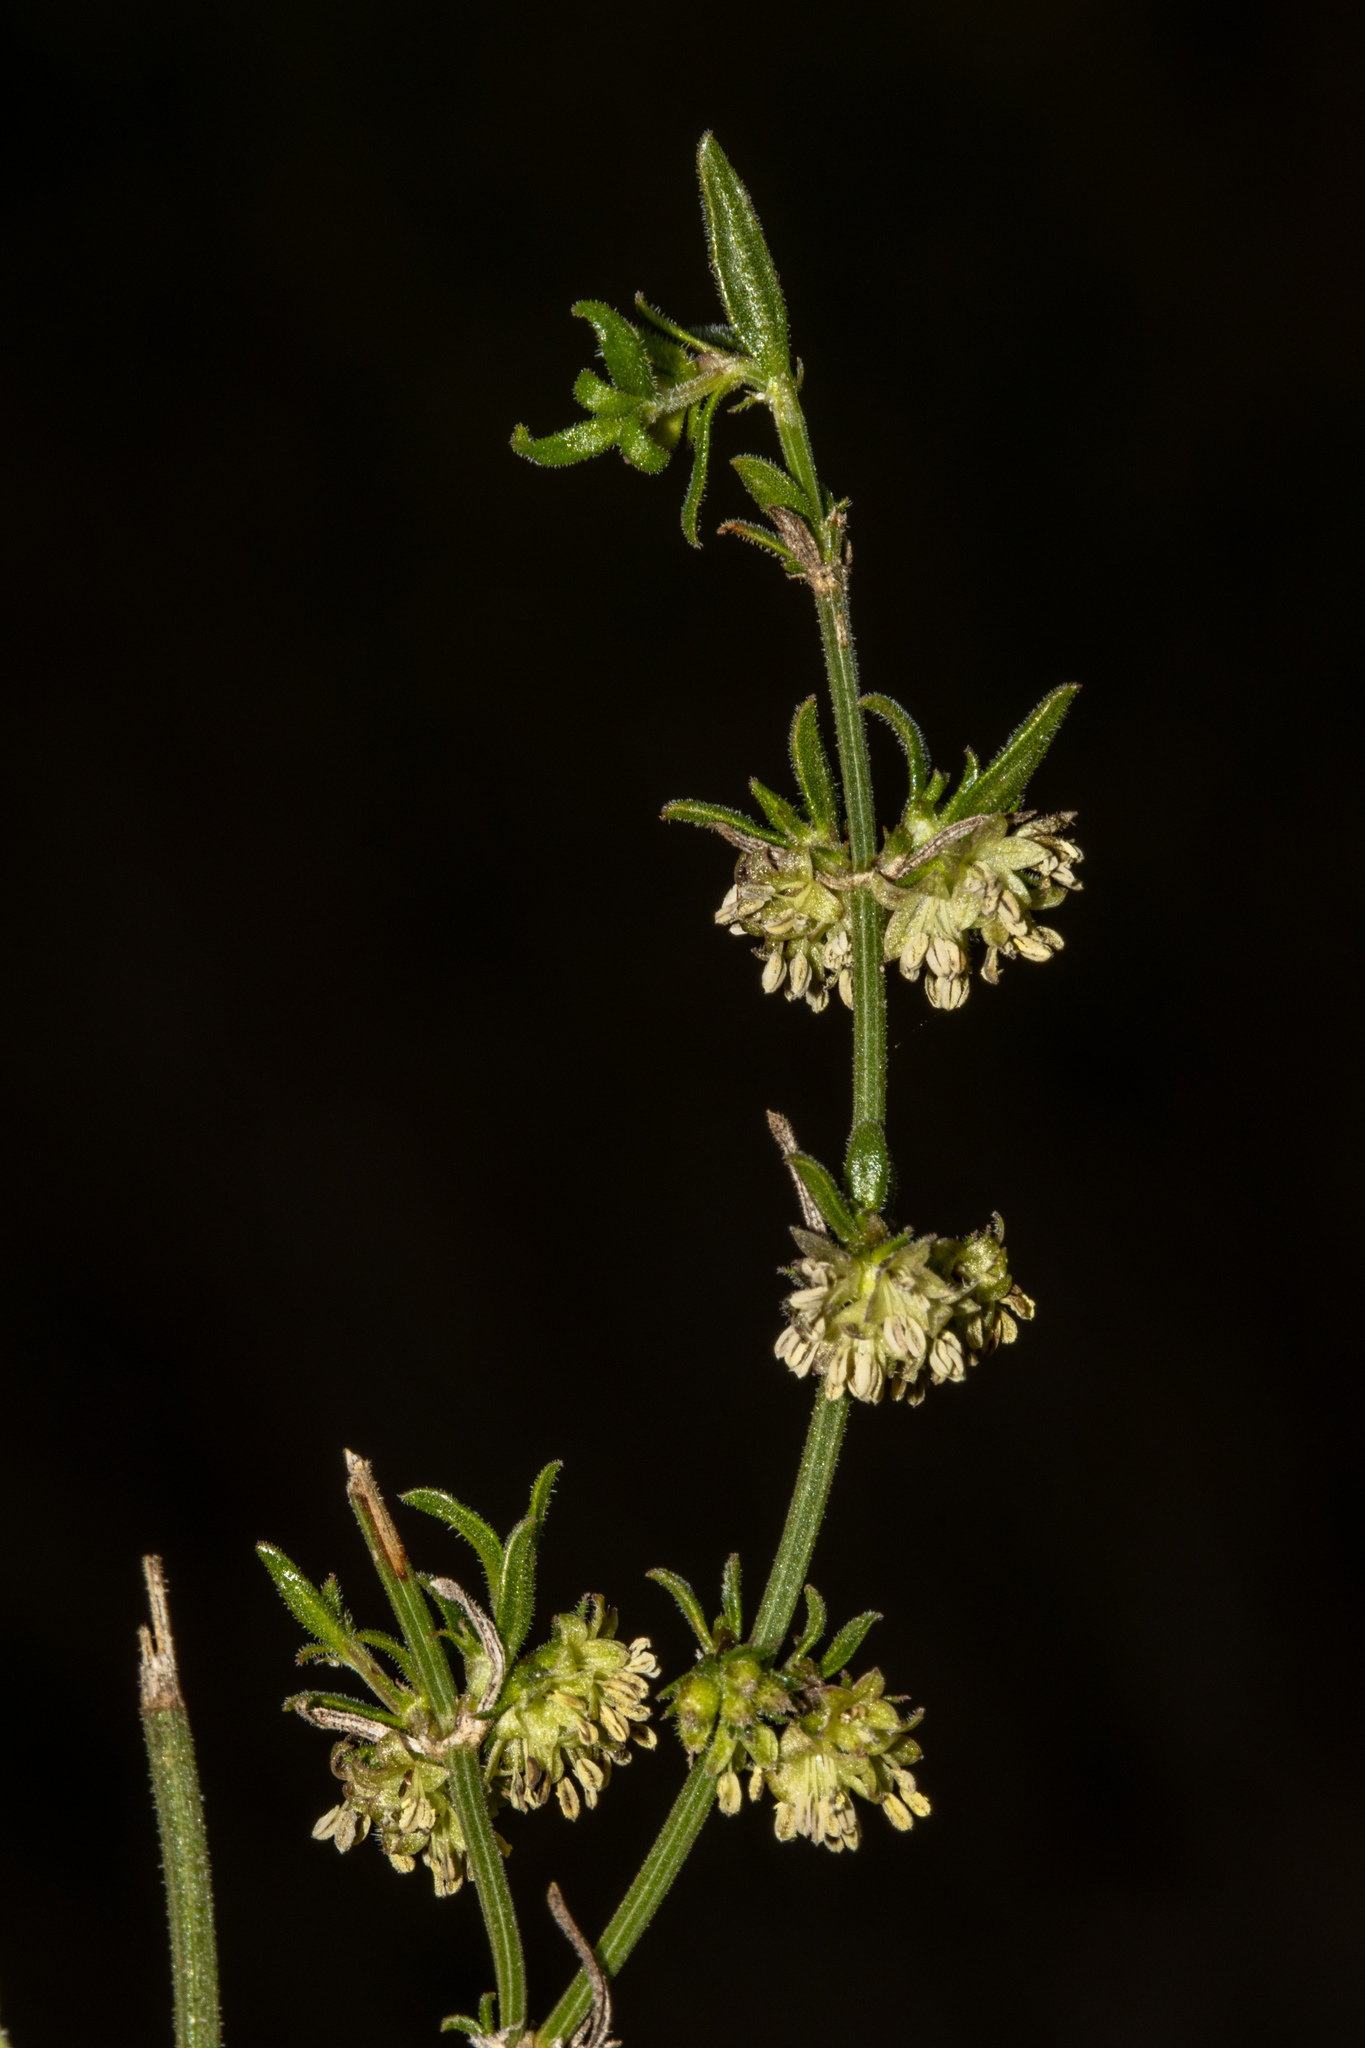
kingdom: Plantae
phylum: Tracheophyta
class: Magnoliopsida
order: Gentianales
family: Rubiaceae
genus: Opercularia
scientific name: Opercularia turpis
